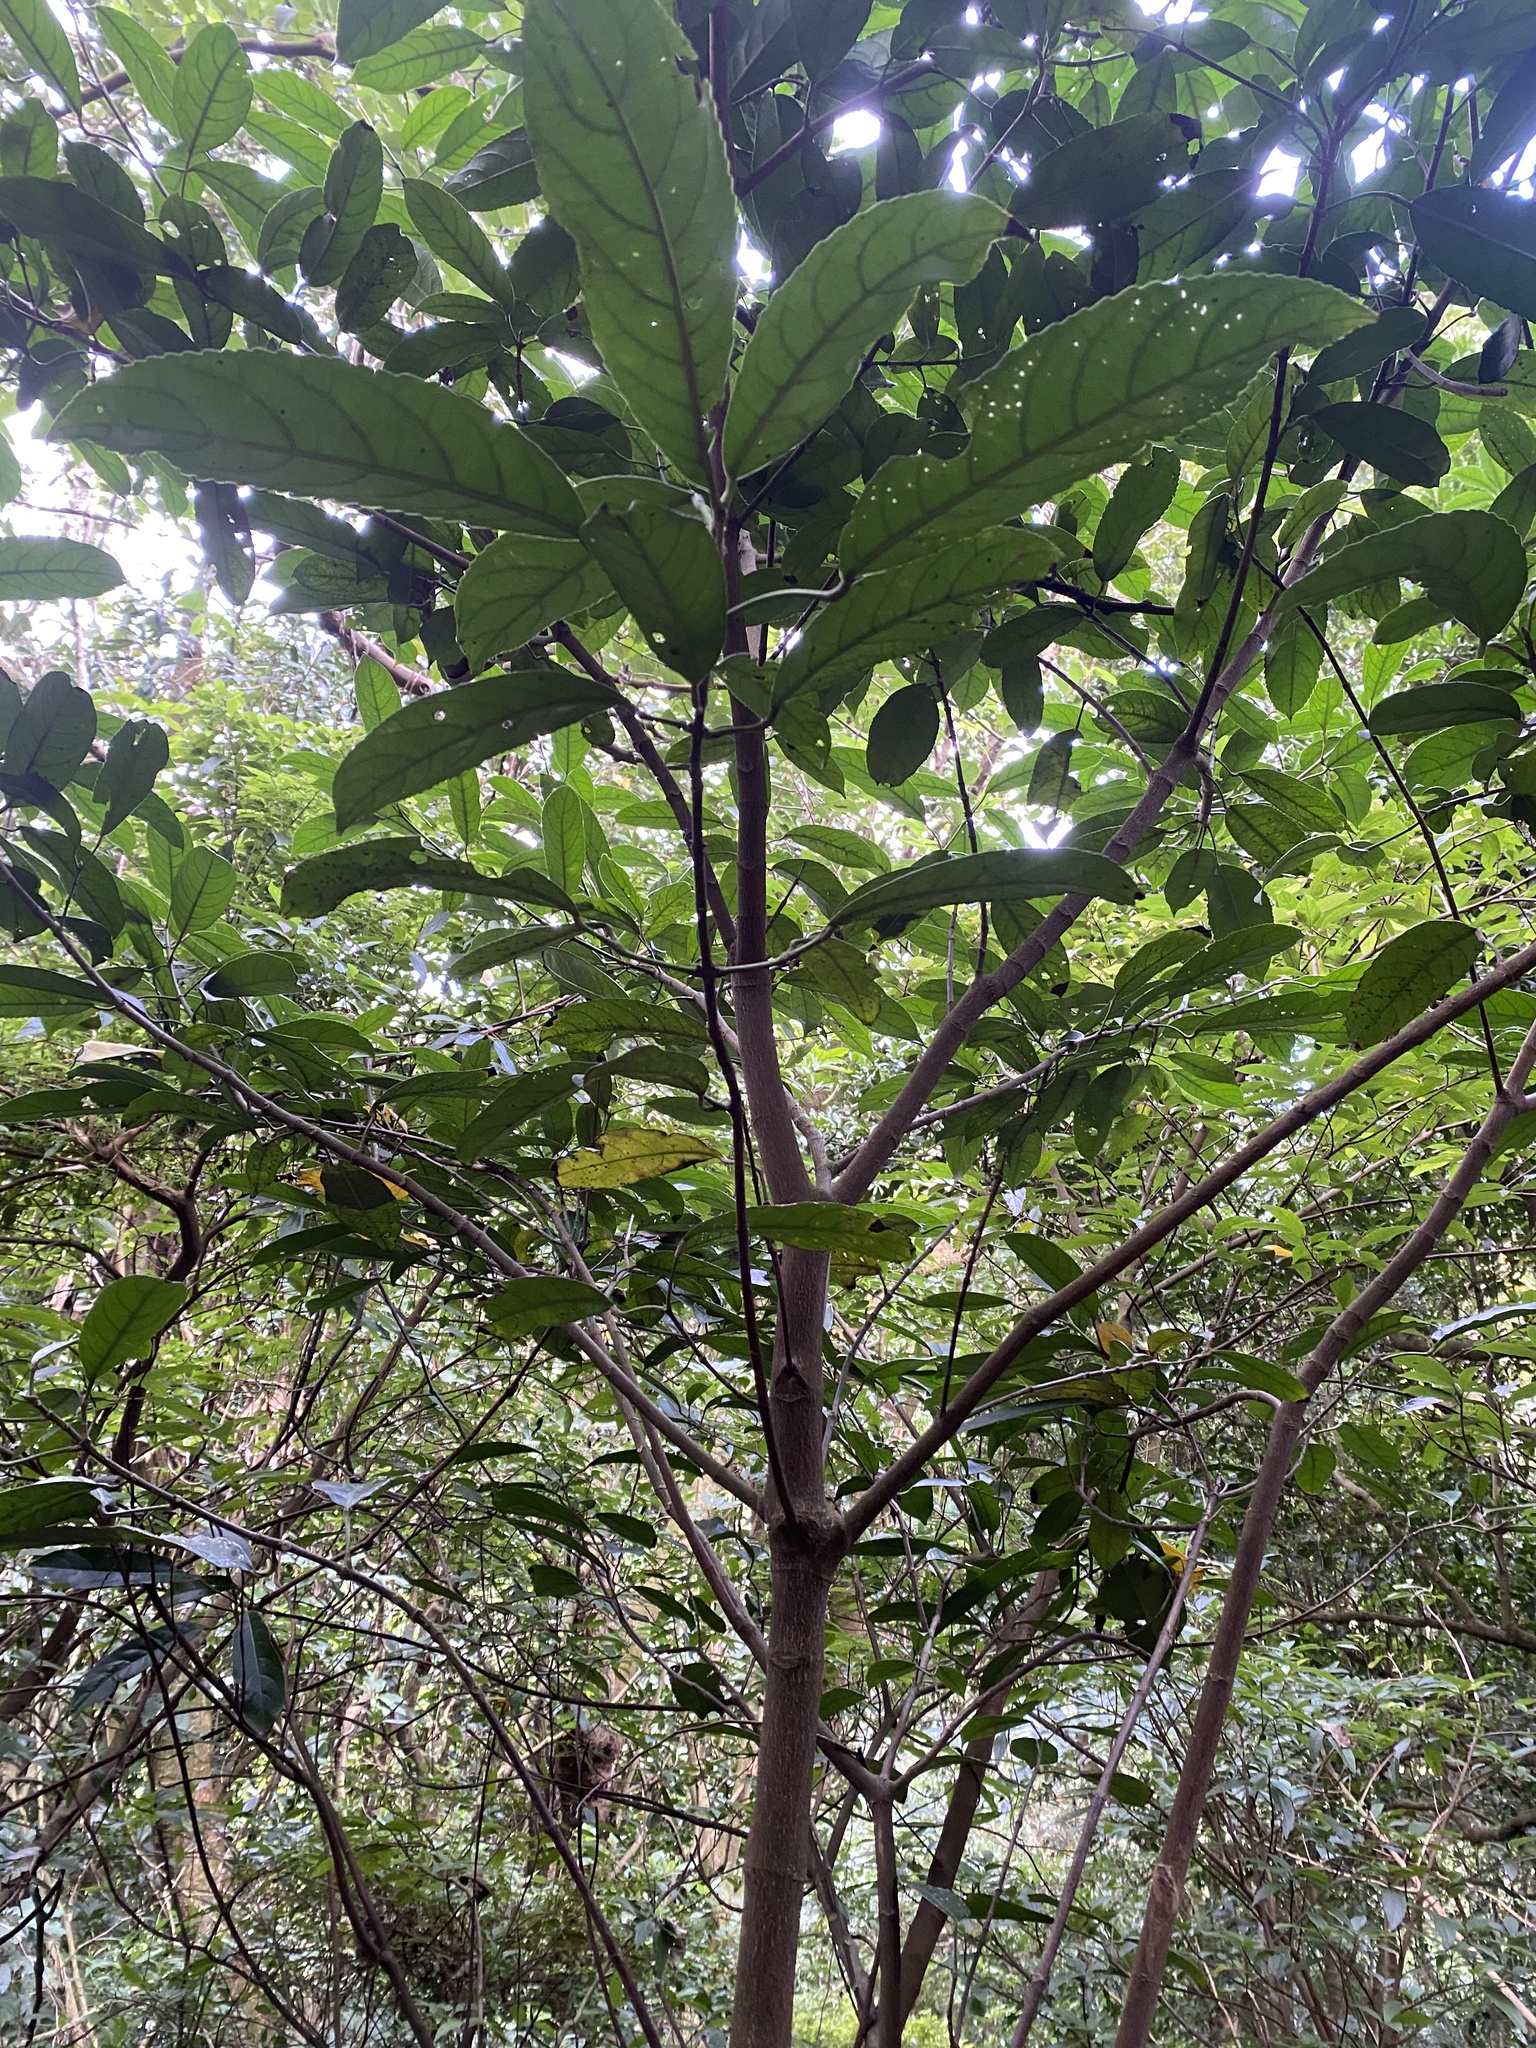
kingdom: Plantae
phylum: Tracheophyta
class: Magnoliopsida
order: Crossosomatales
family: Staphyleaceae
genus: Turpinia
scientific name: Turpinia formosana
